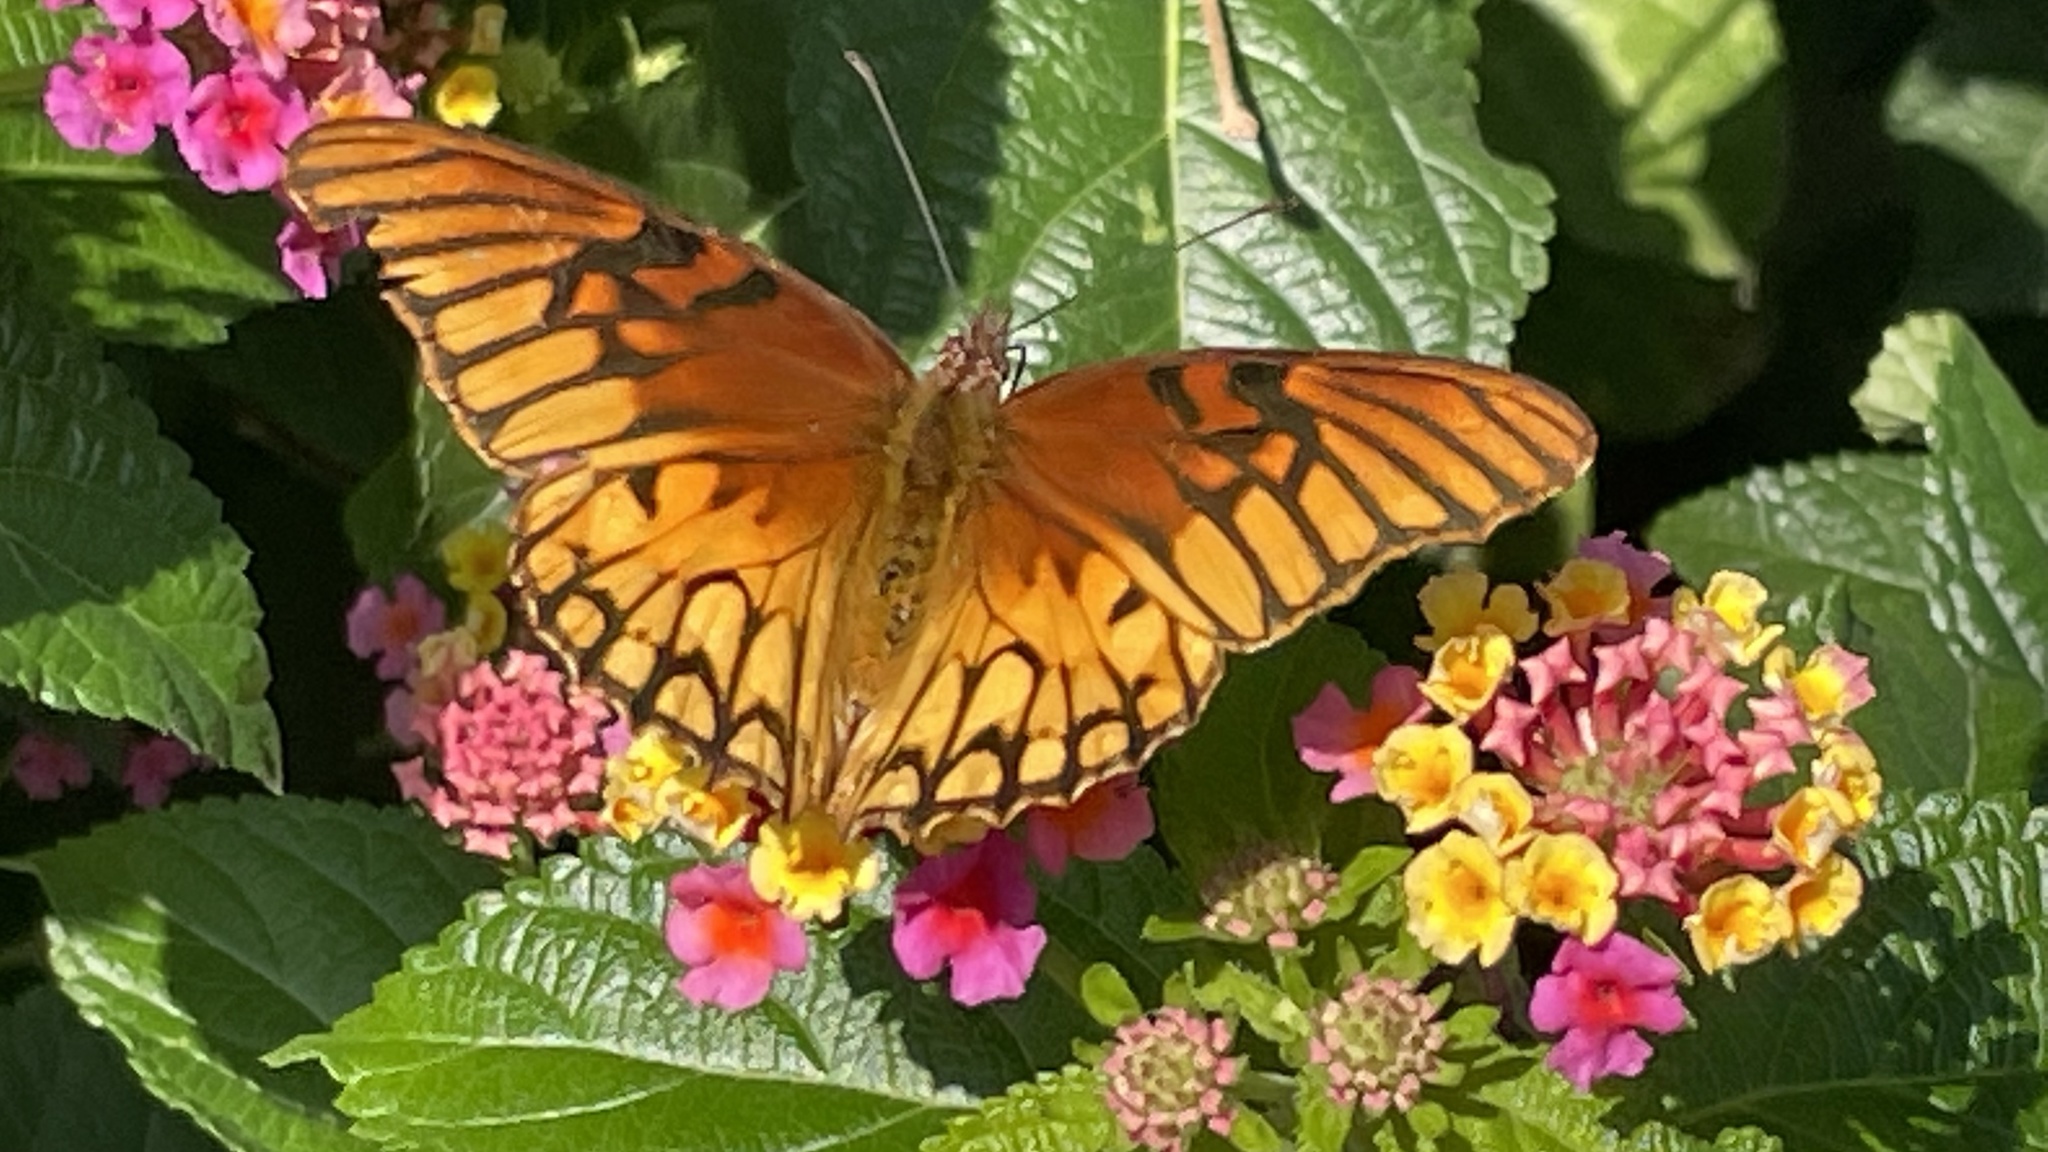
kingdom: Animalia
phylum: Arthropoda
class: Insecta
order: Lepidoptera
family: Nymphalidae
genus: Dione
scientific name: Dione moneta
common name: Mexican silverspot
